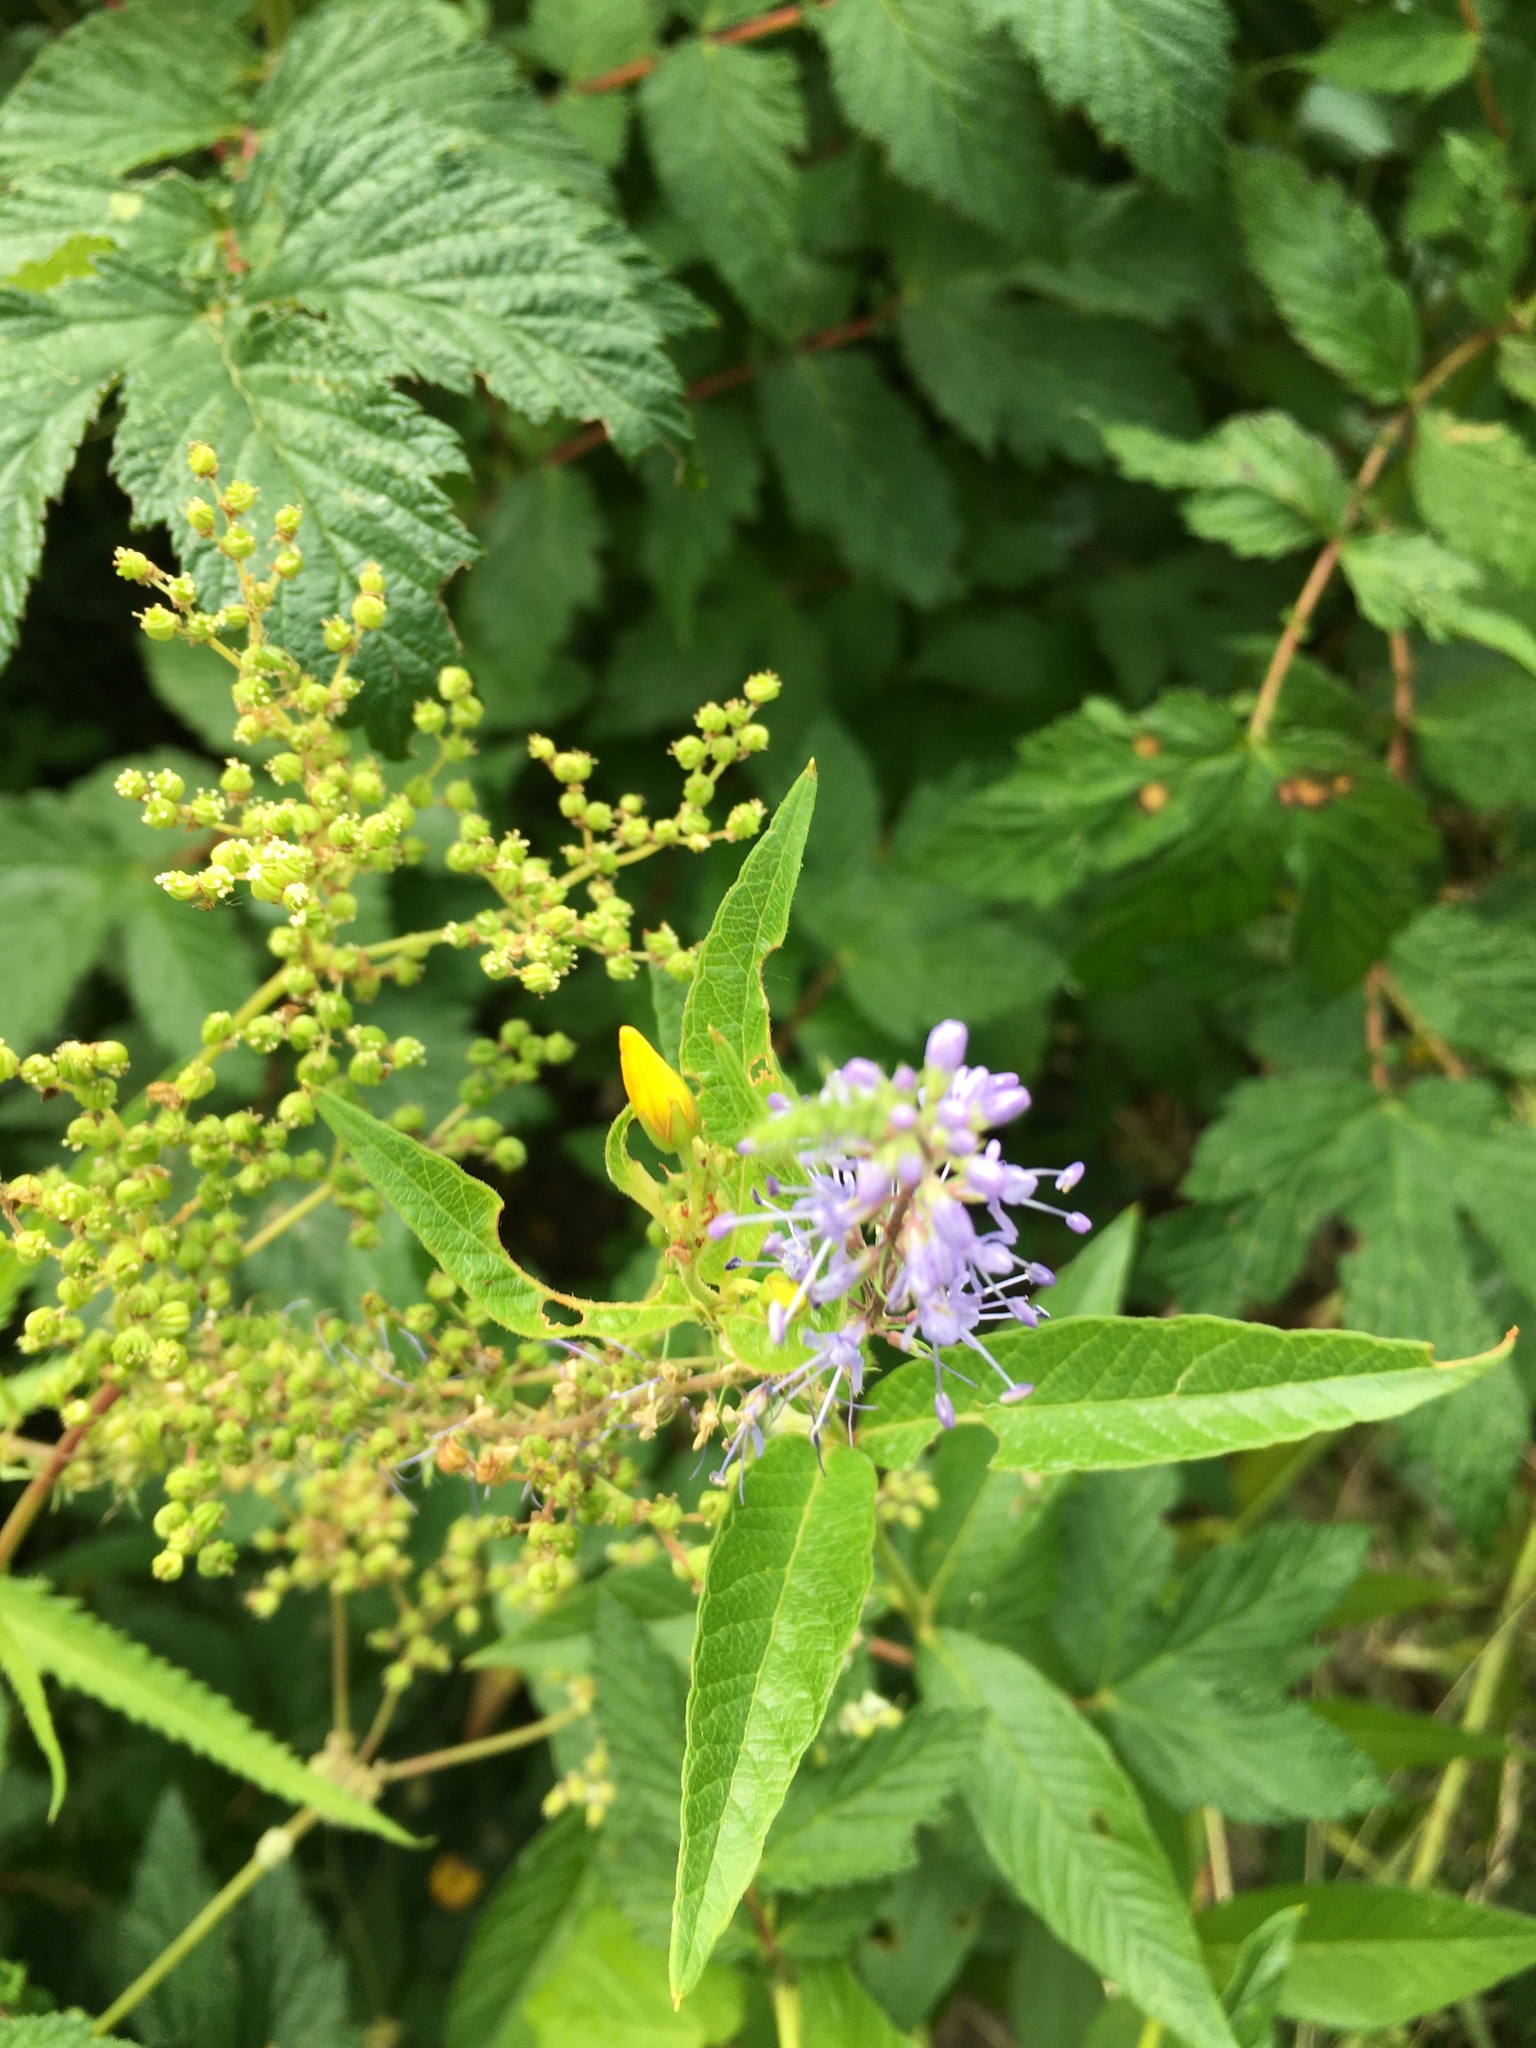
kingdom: Plantae
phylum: Tracheophyta
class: Magnoliopsida
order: Lamiales
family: Plantaginaceae
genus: Veronica
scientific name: Veronica longifolia
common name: Garden speedwell
